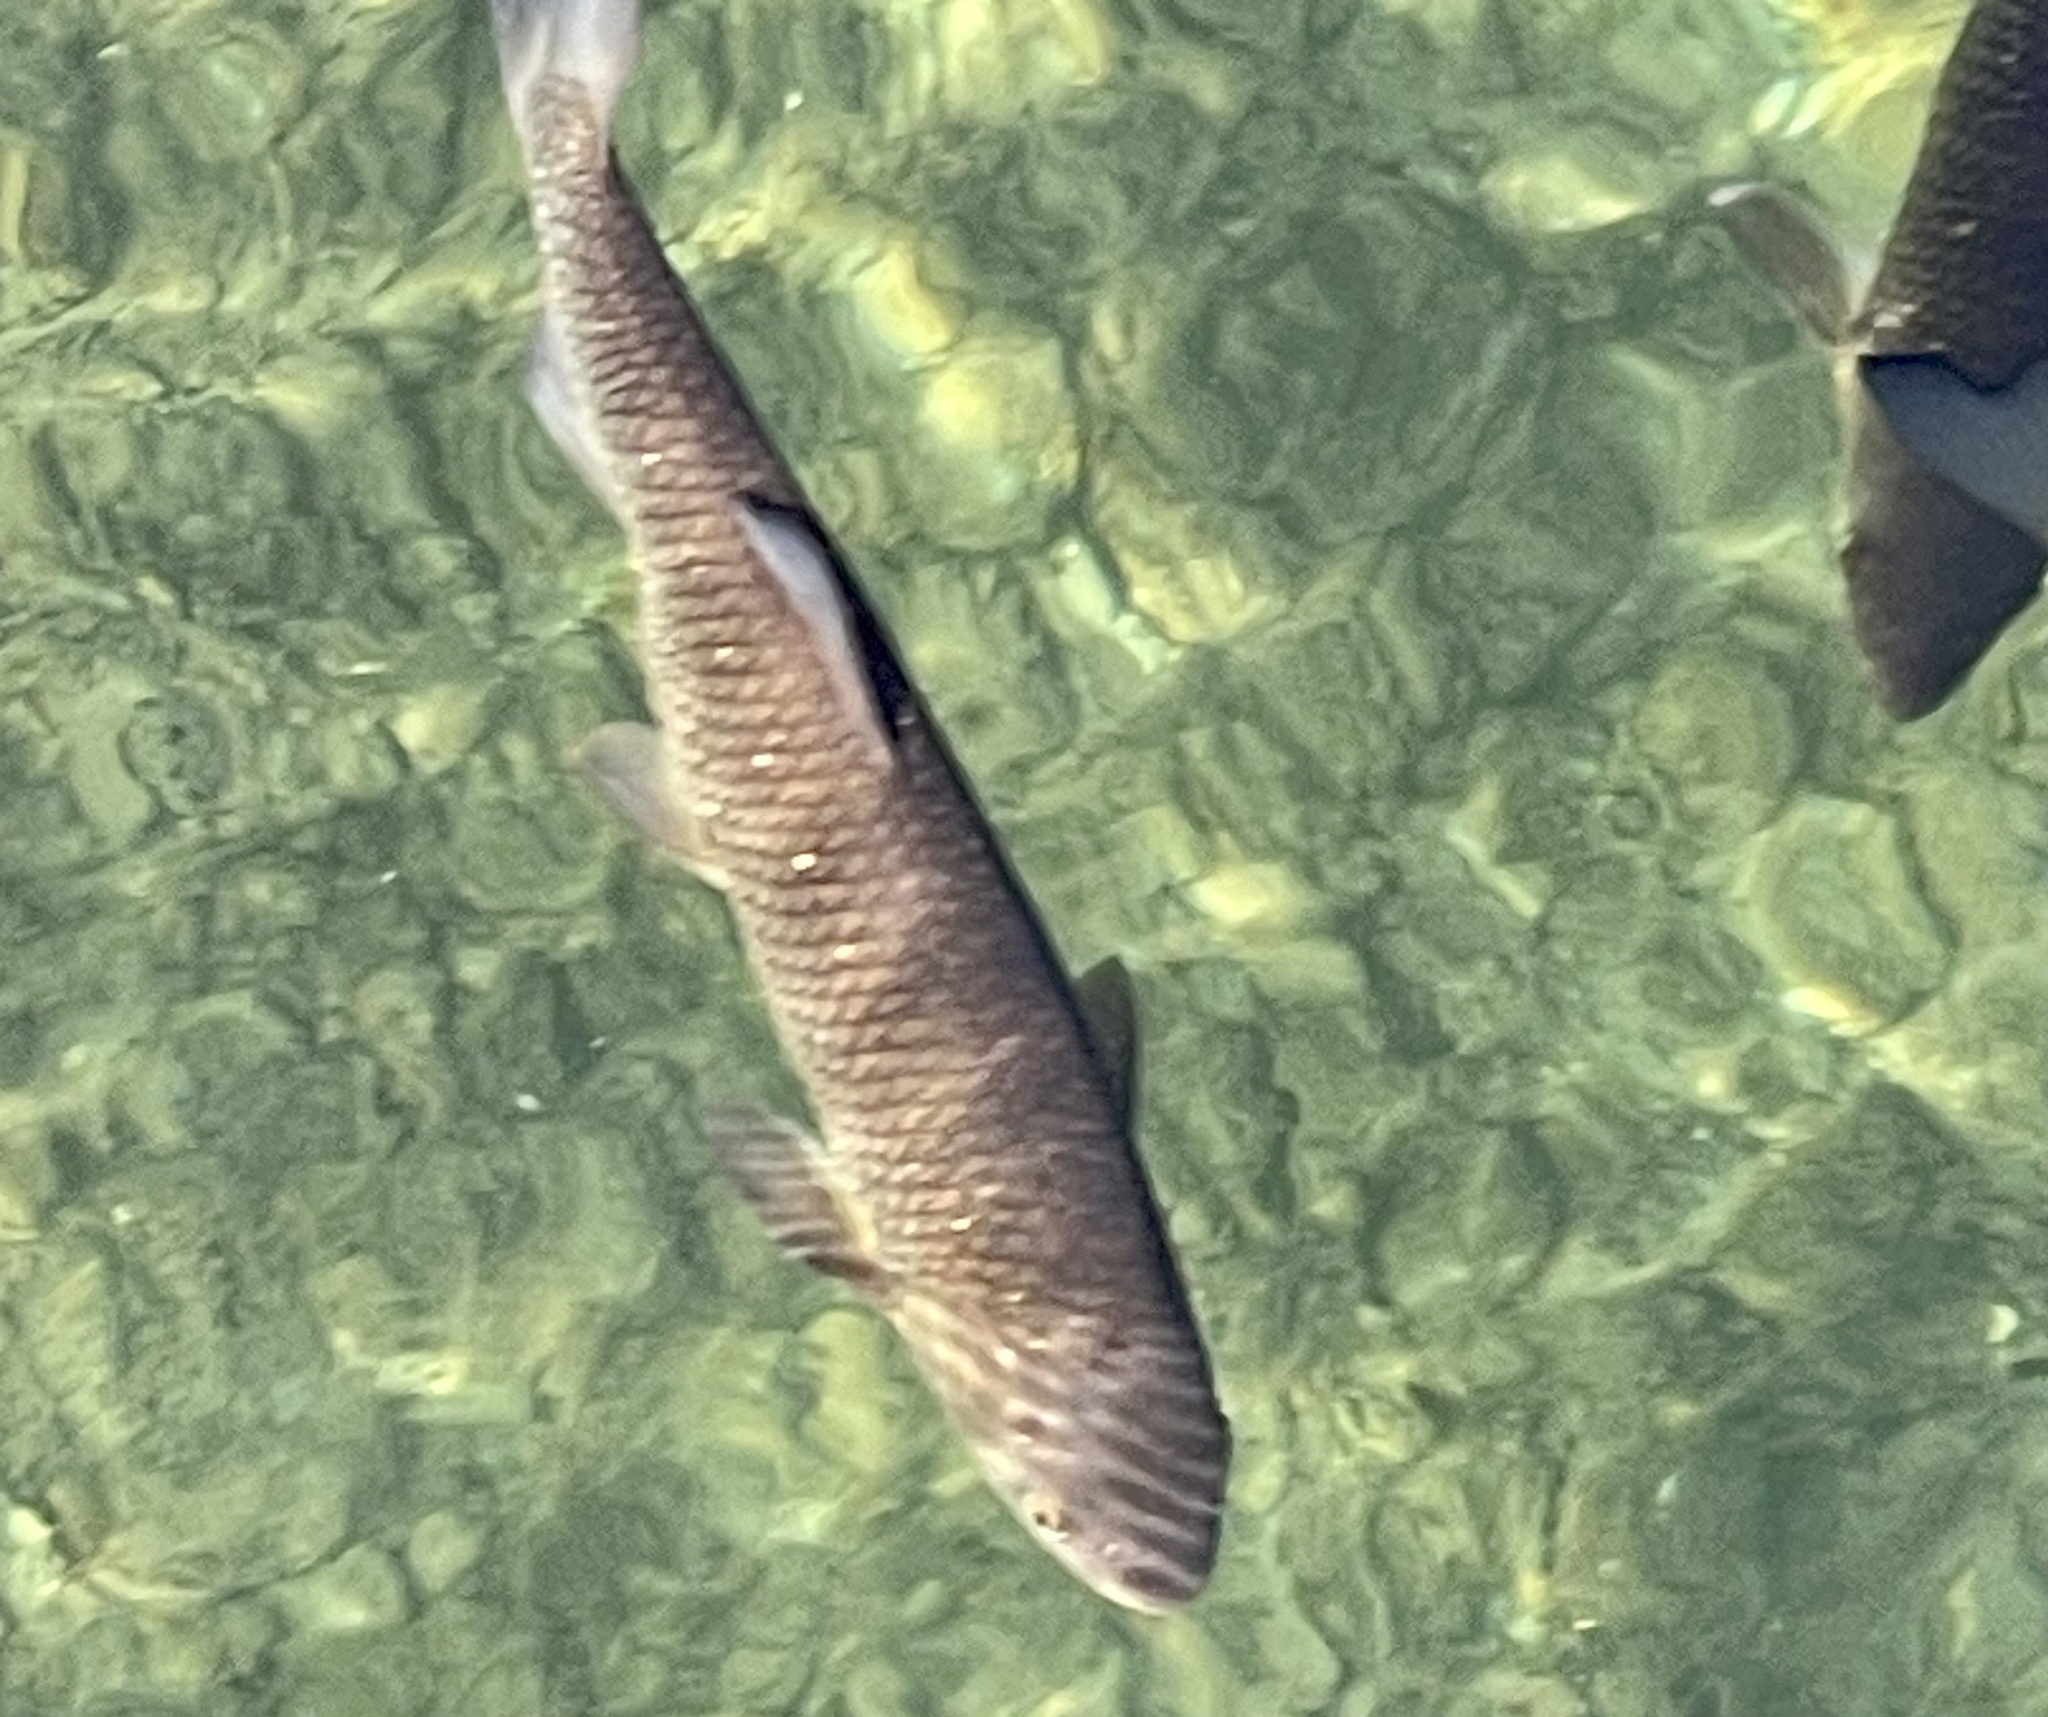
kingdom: Animalia
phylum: Chordata
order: Cypriniformes
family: Cyprinidae
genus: Squalius
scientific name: Squalius cephalus
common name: Chub
